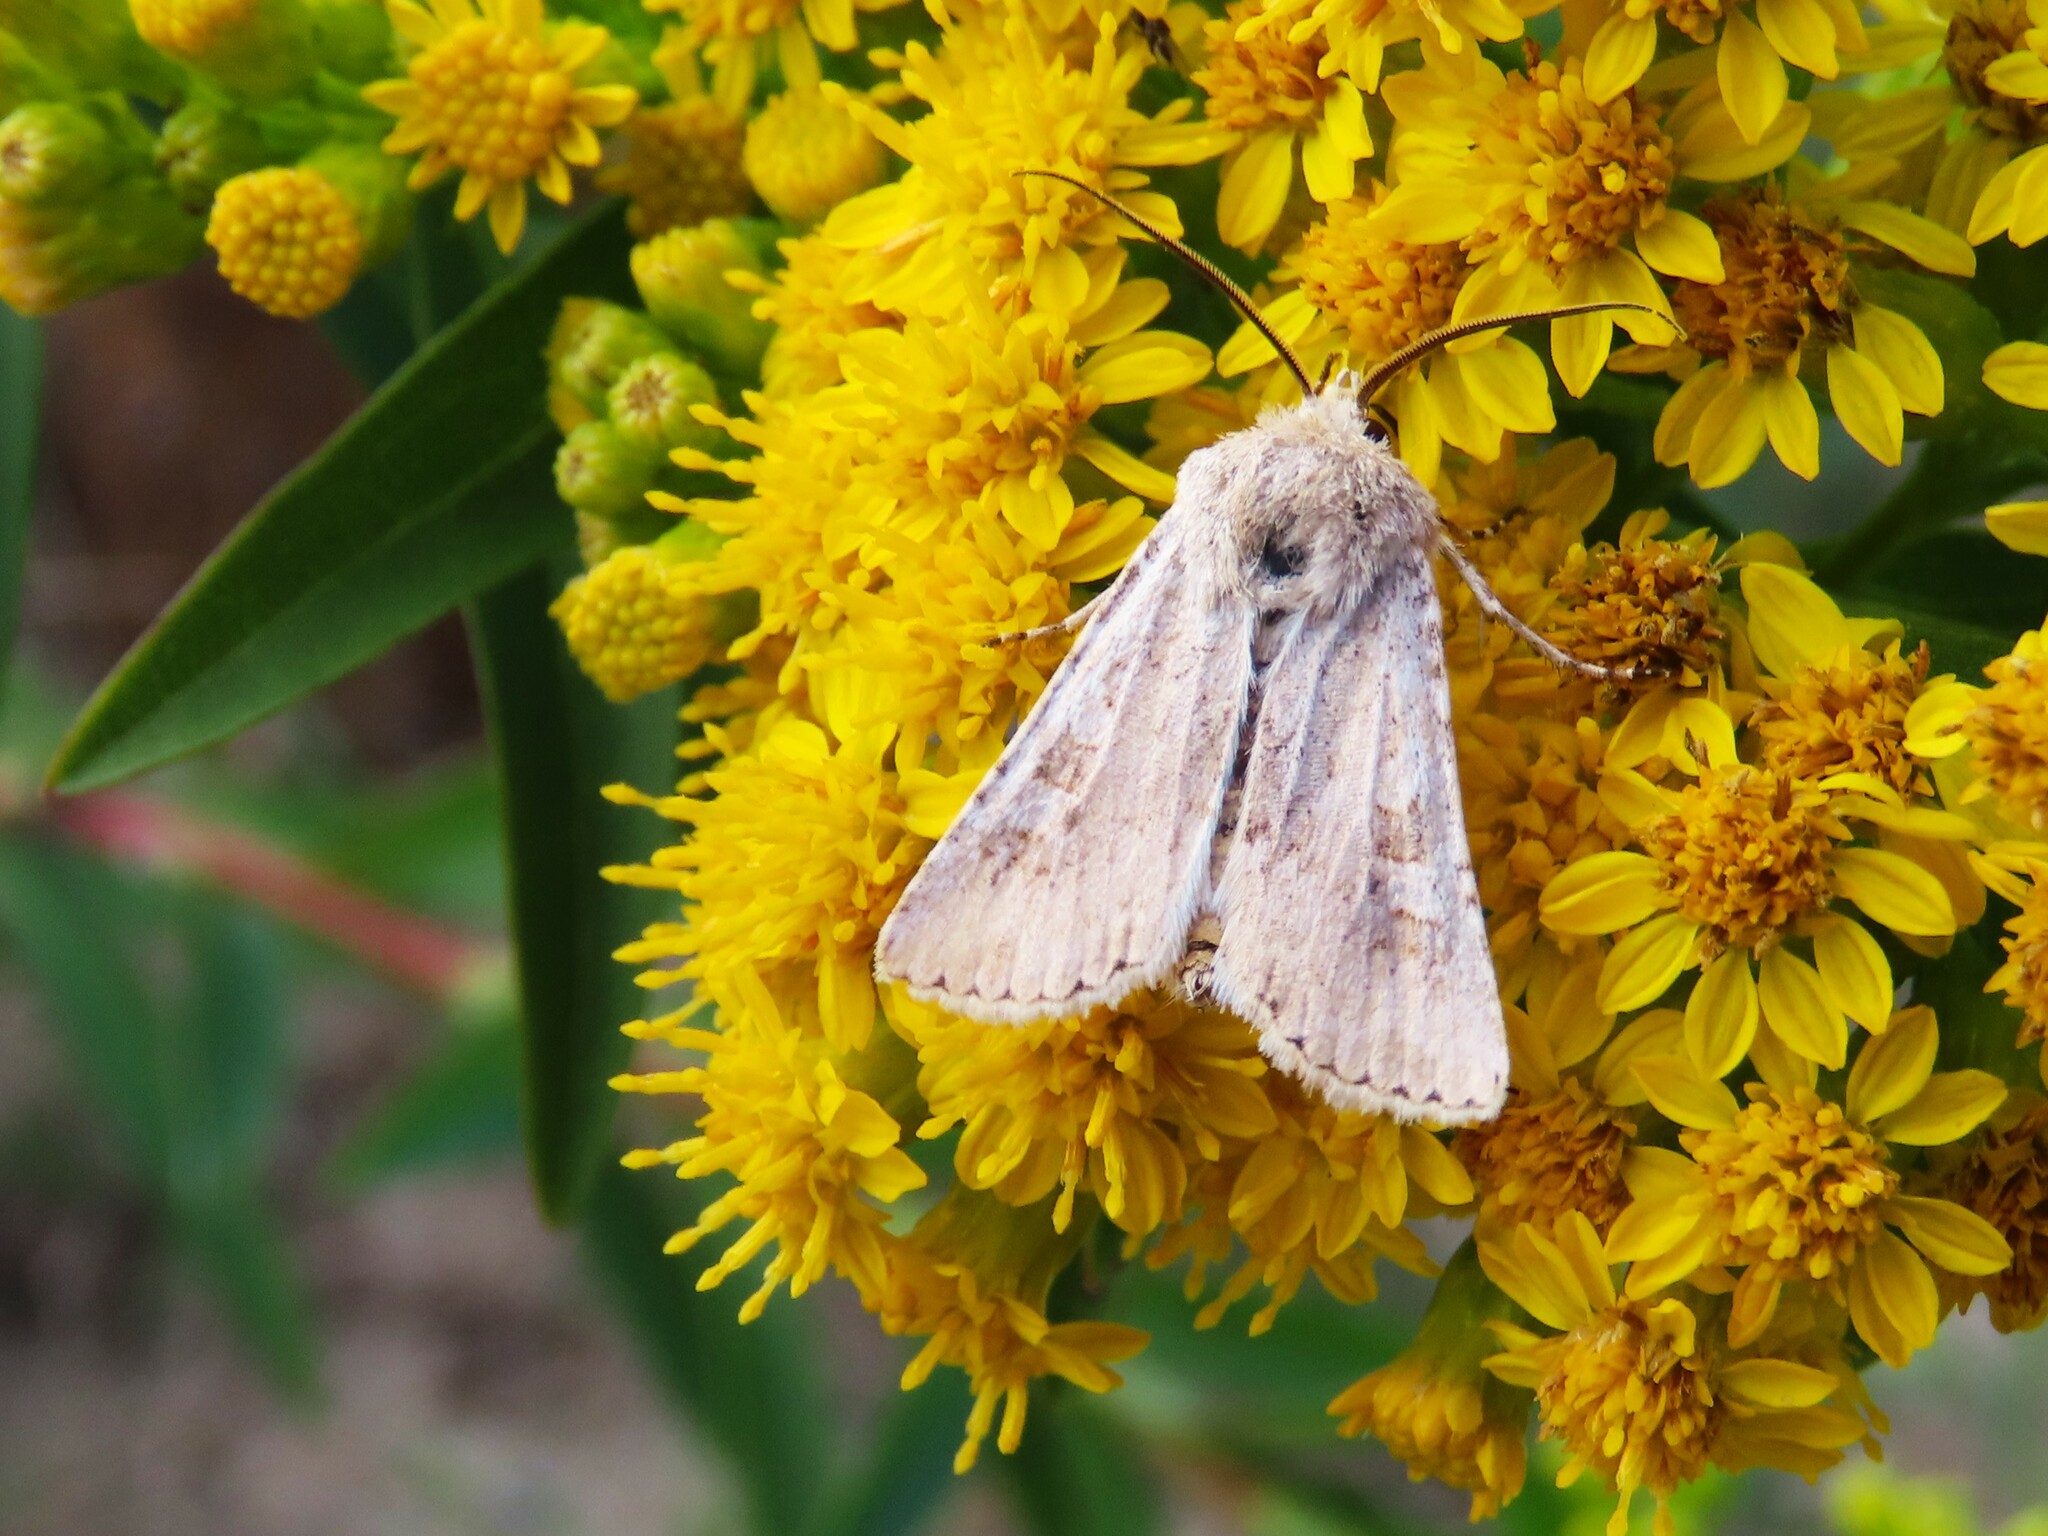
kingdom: Animalia
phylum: Arthropoda
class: Insecta
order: Lepidoptera
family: Noctuidae
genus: Euxoa
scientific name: Euxoa detersa
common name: Rubbed dart
